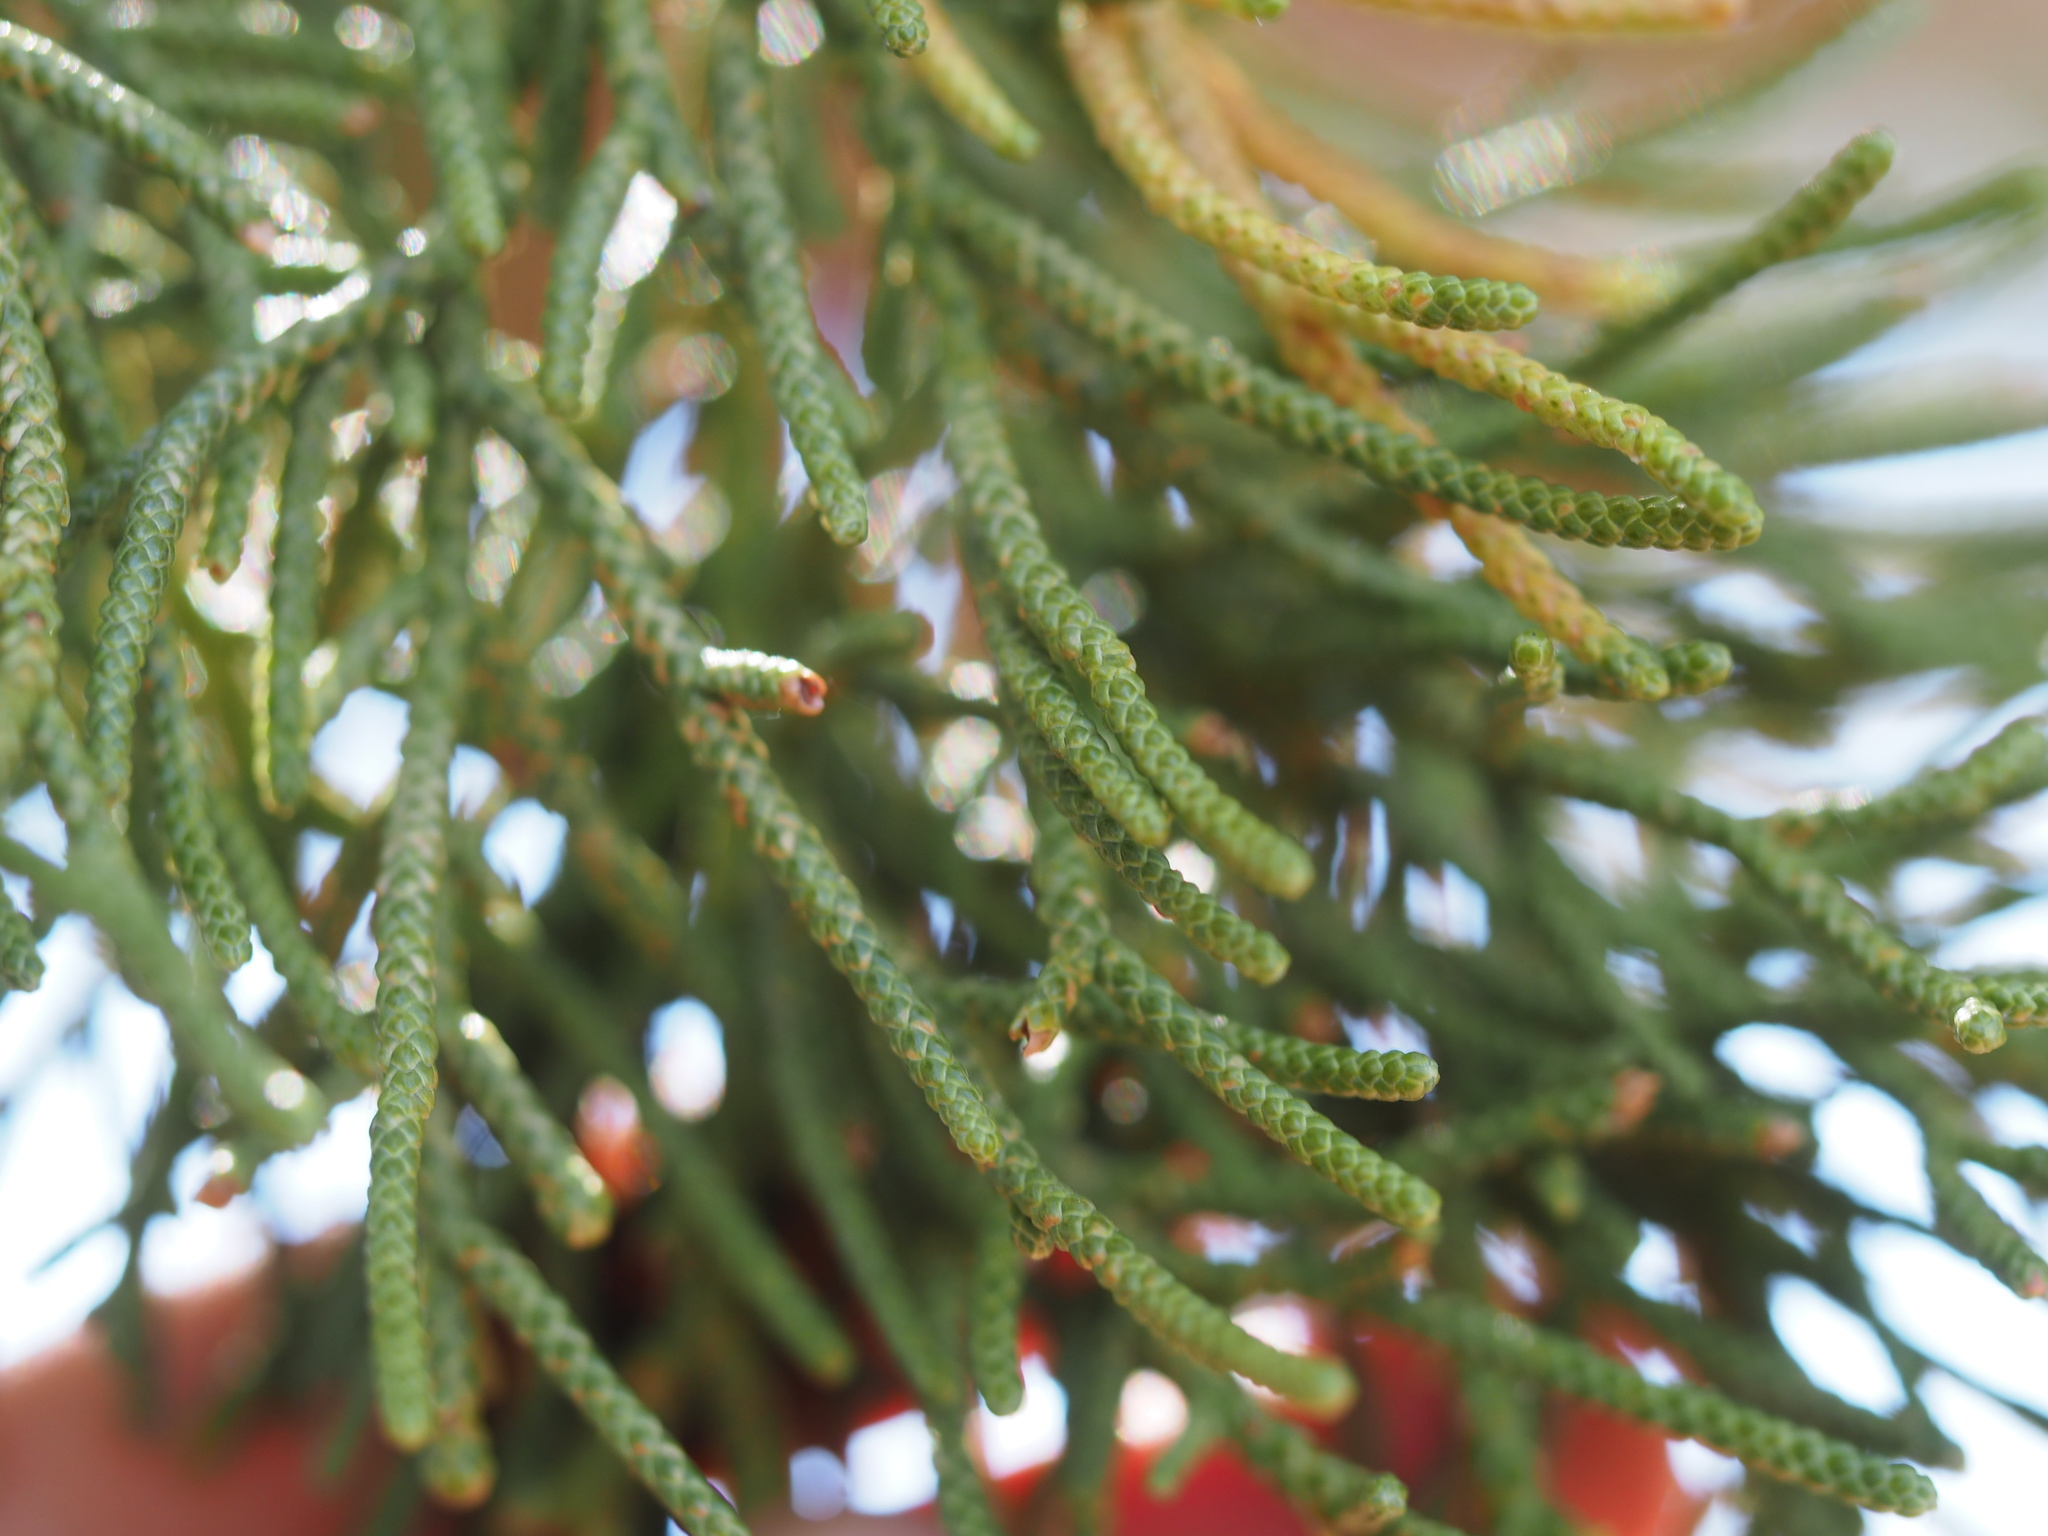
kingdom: Plantae
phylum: Tracheophyta
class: Pinopsida
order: Pinales
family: Cupressaceae
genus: Juniperus
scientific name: Juniperus occidentalis
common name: Western juniper
